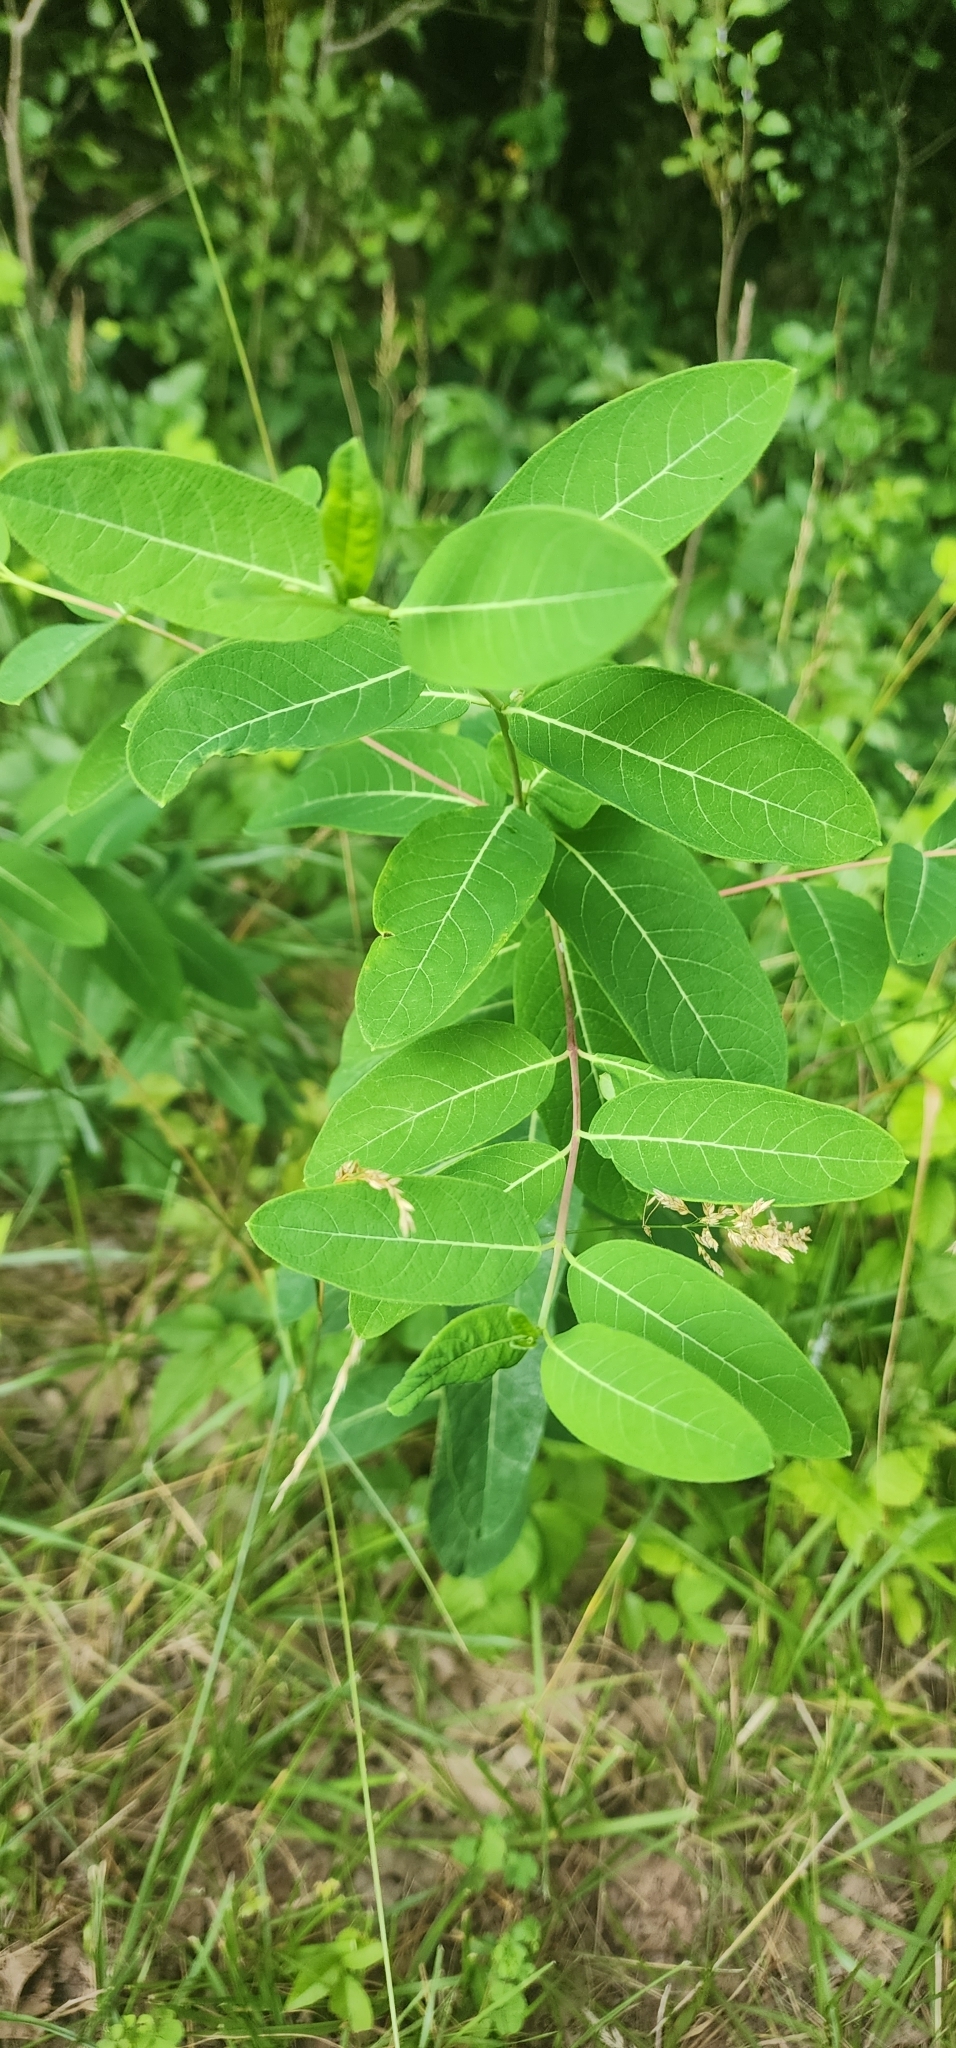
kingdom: Plantae
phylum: Tracheophyta
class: Magnoliopsida
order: Gentianales
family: Apocynaceae
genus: Apocynum
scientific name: Apocynum cannabinum
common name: Hemp dogbane
